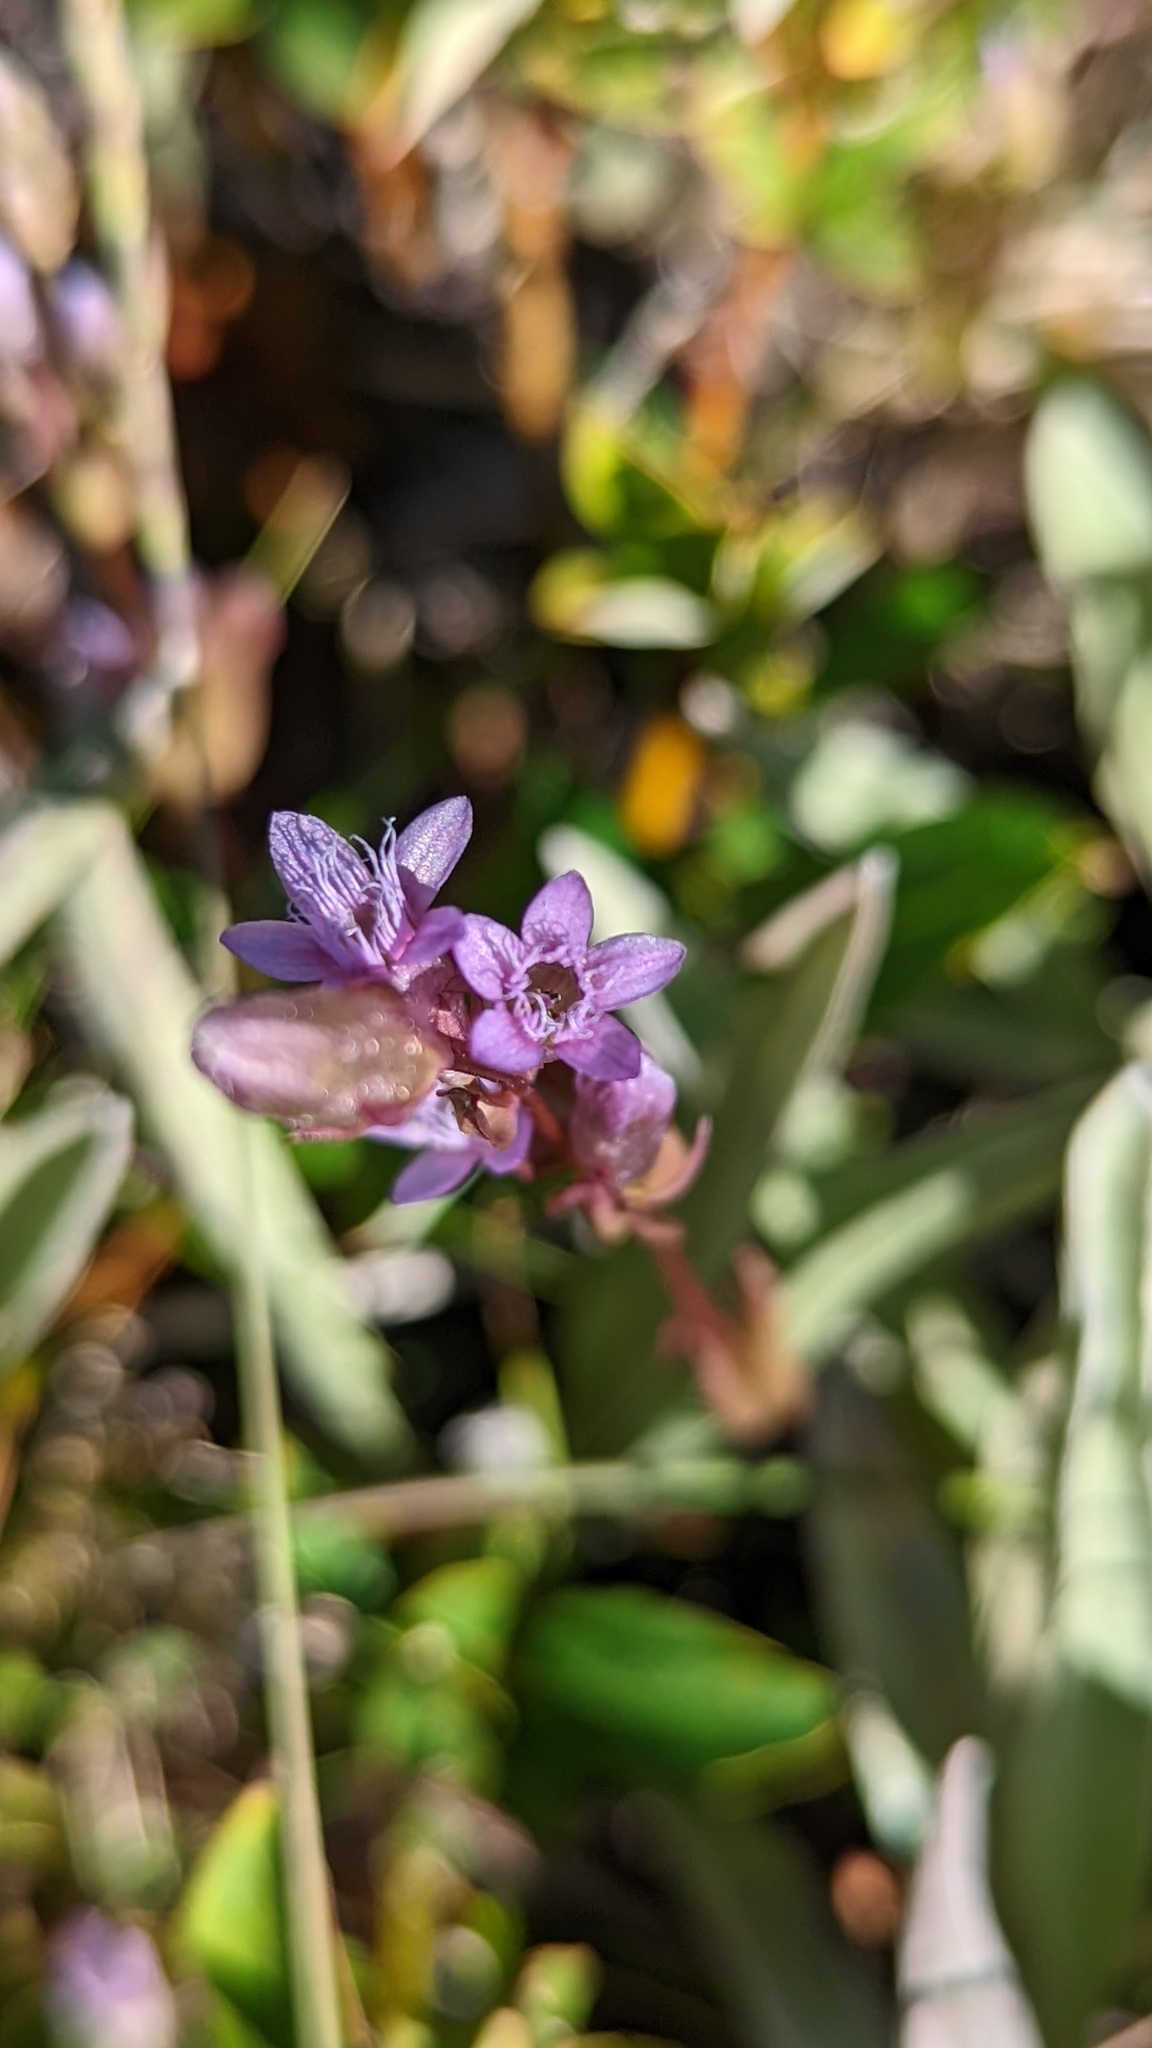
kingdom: Plantae
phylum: Tracheophyta
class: Magnoliopsida
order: Gentianales
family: Gentianaceae
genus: Gentianella
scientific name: Gentianella amarella
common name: Autumn gentian
